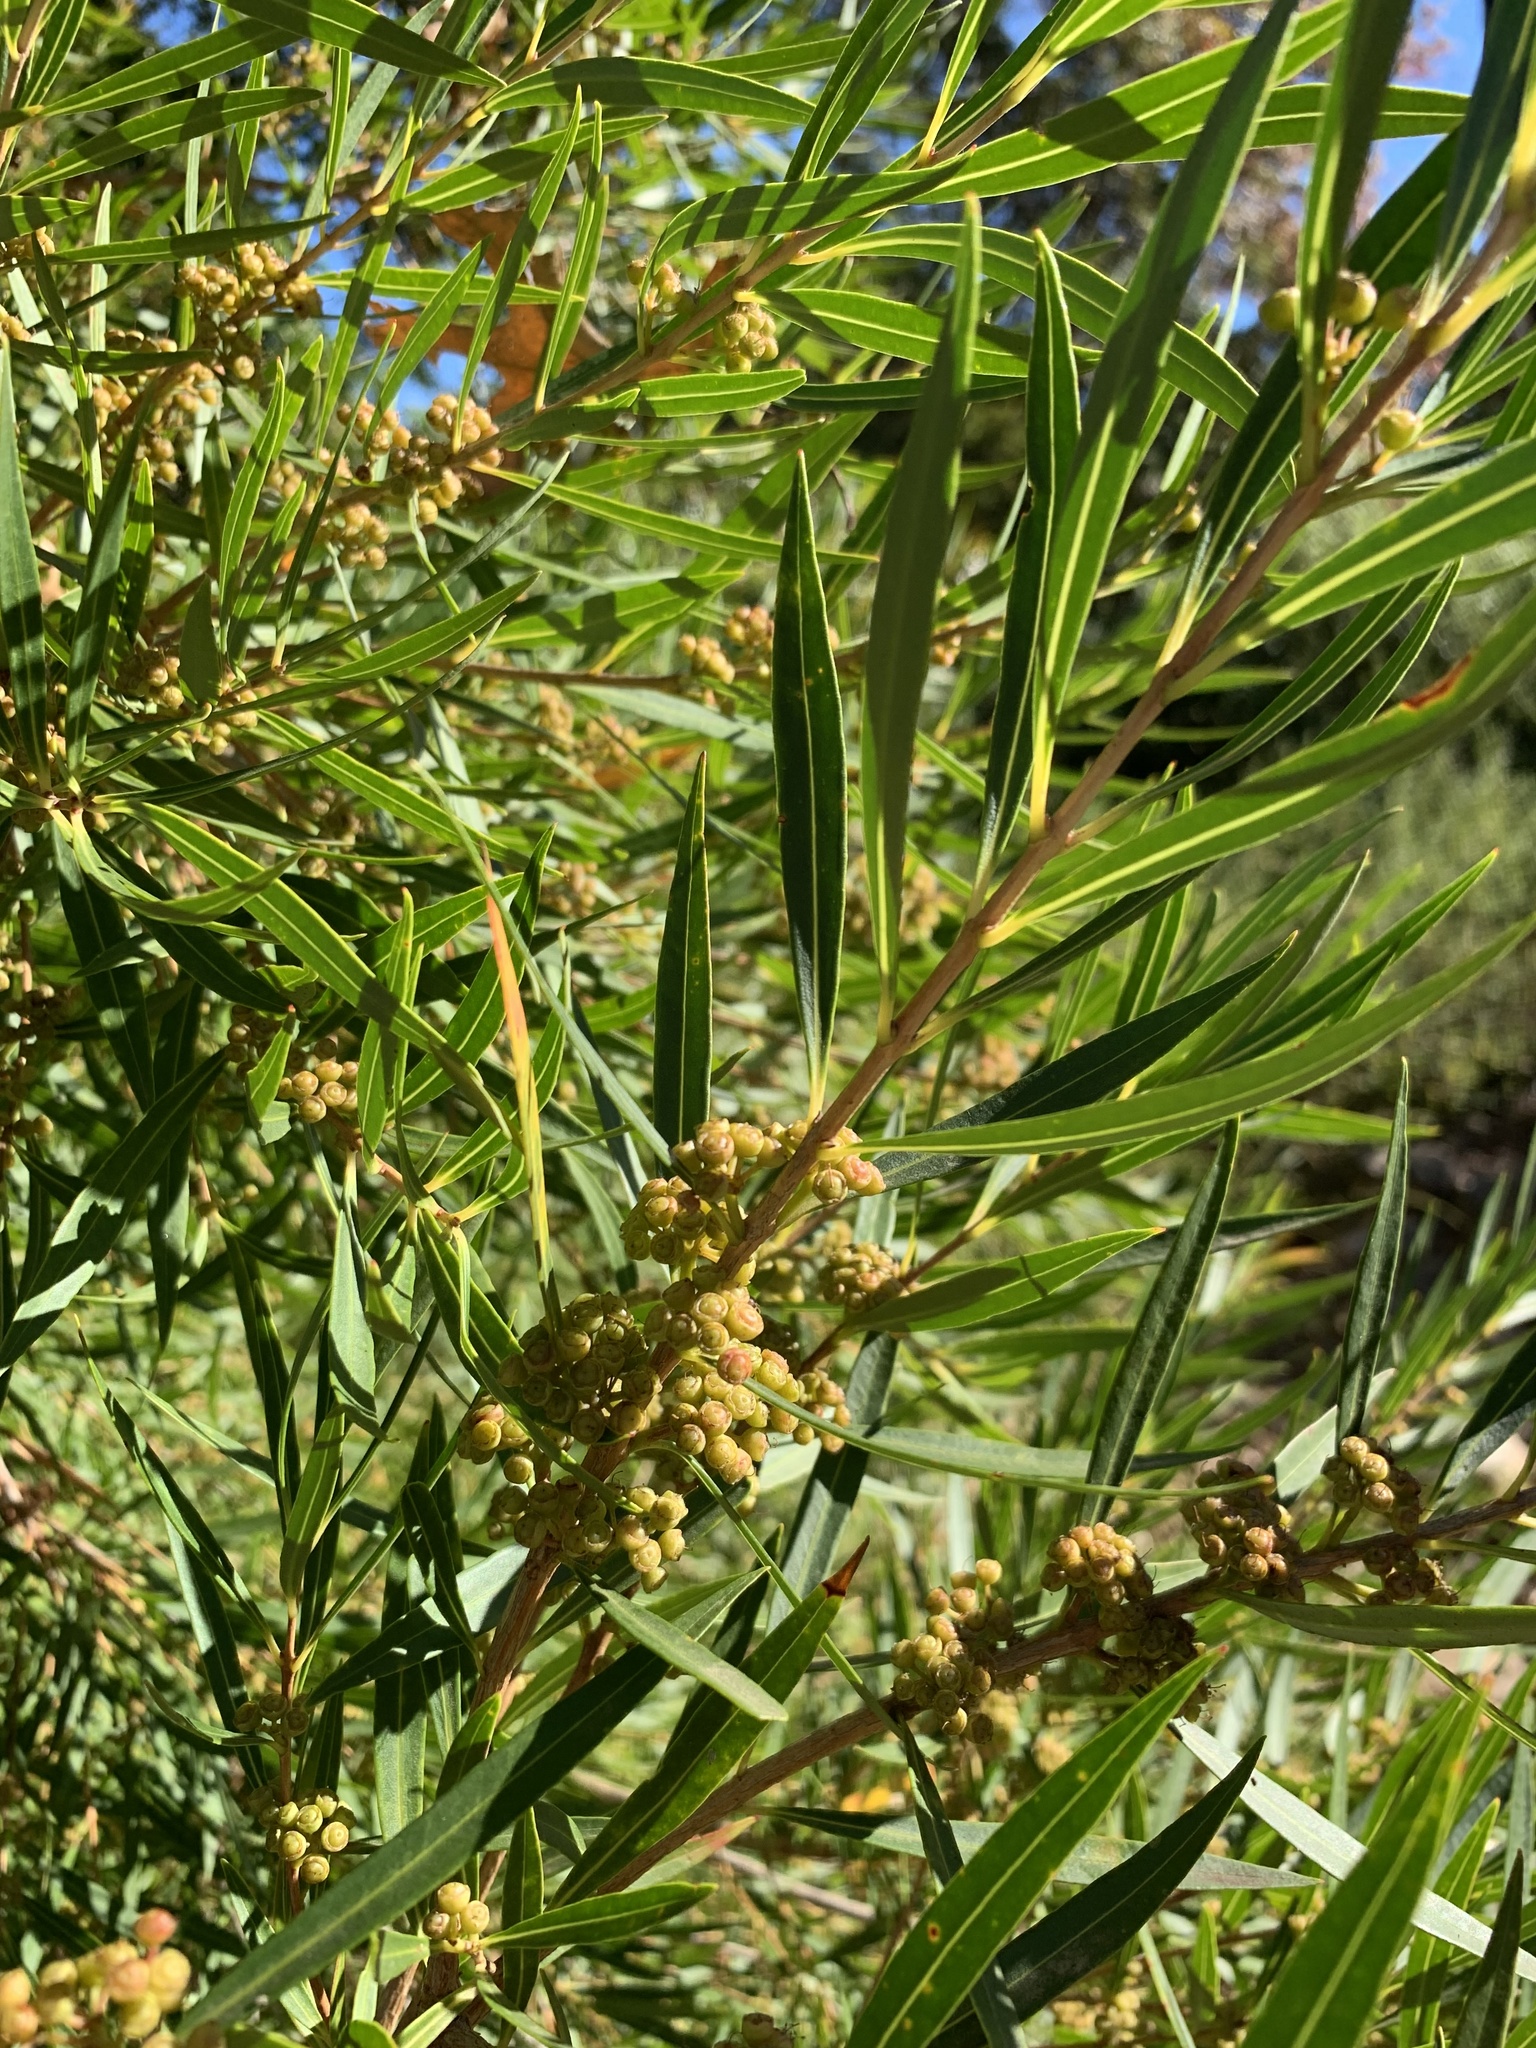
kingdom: Plantae
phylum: Tracheophyta
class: Magnoliopsida
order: Myrtales
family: Myrtaceae
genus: Callistemon
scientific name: Callistemon lanceolatus
